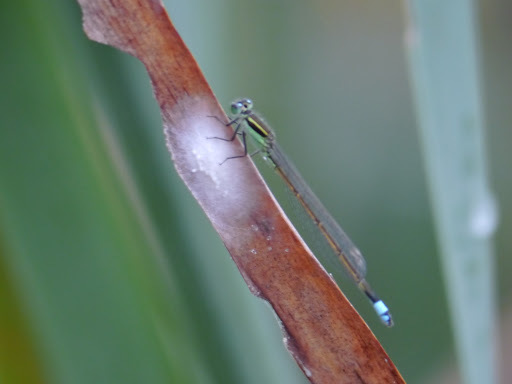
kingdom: Animalia
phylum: Arthropoda
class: Insecta
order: Odonata
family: Coenagrionidae
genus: Ischnura
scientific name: Ischnura ramburii
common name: Rambur's forktail
